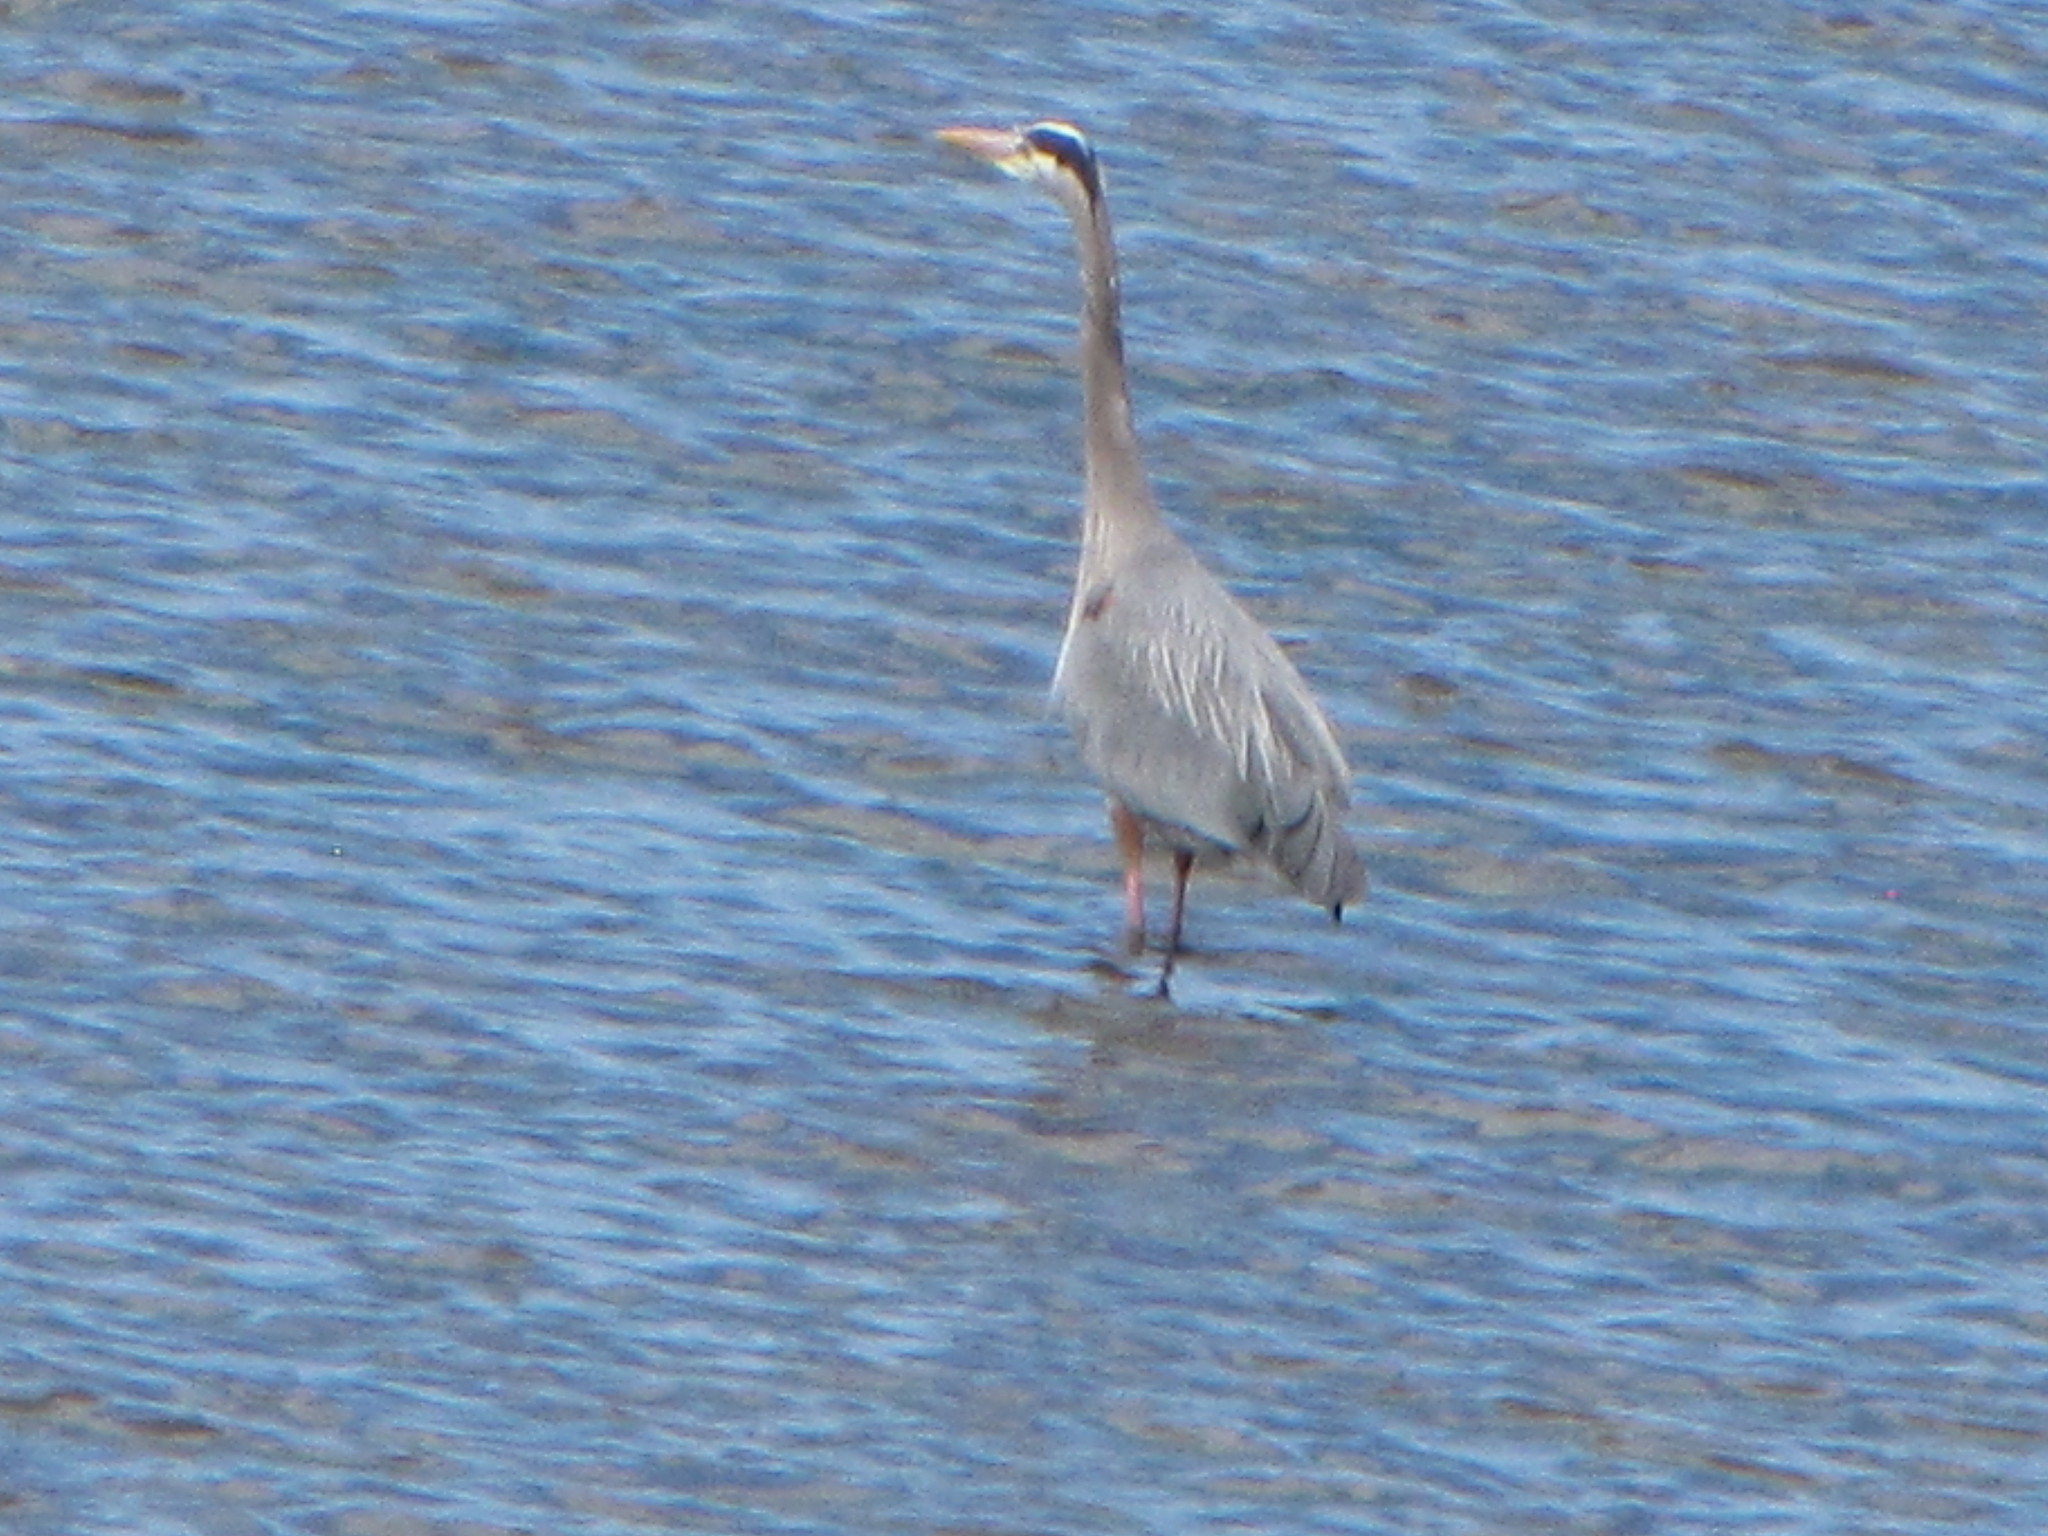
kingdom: Animalia
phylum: Chordata
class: Aves
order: Pelecaniformes
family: Ardeidae
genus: Ardea
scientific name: Ardea herodias
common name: Great blue heron
